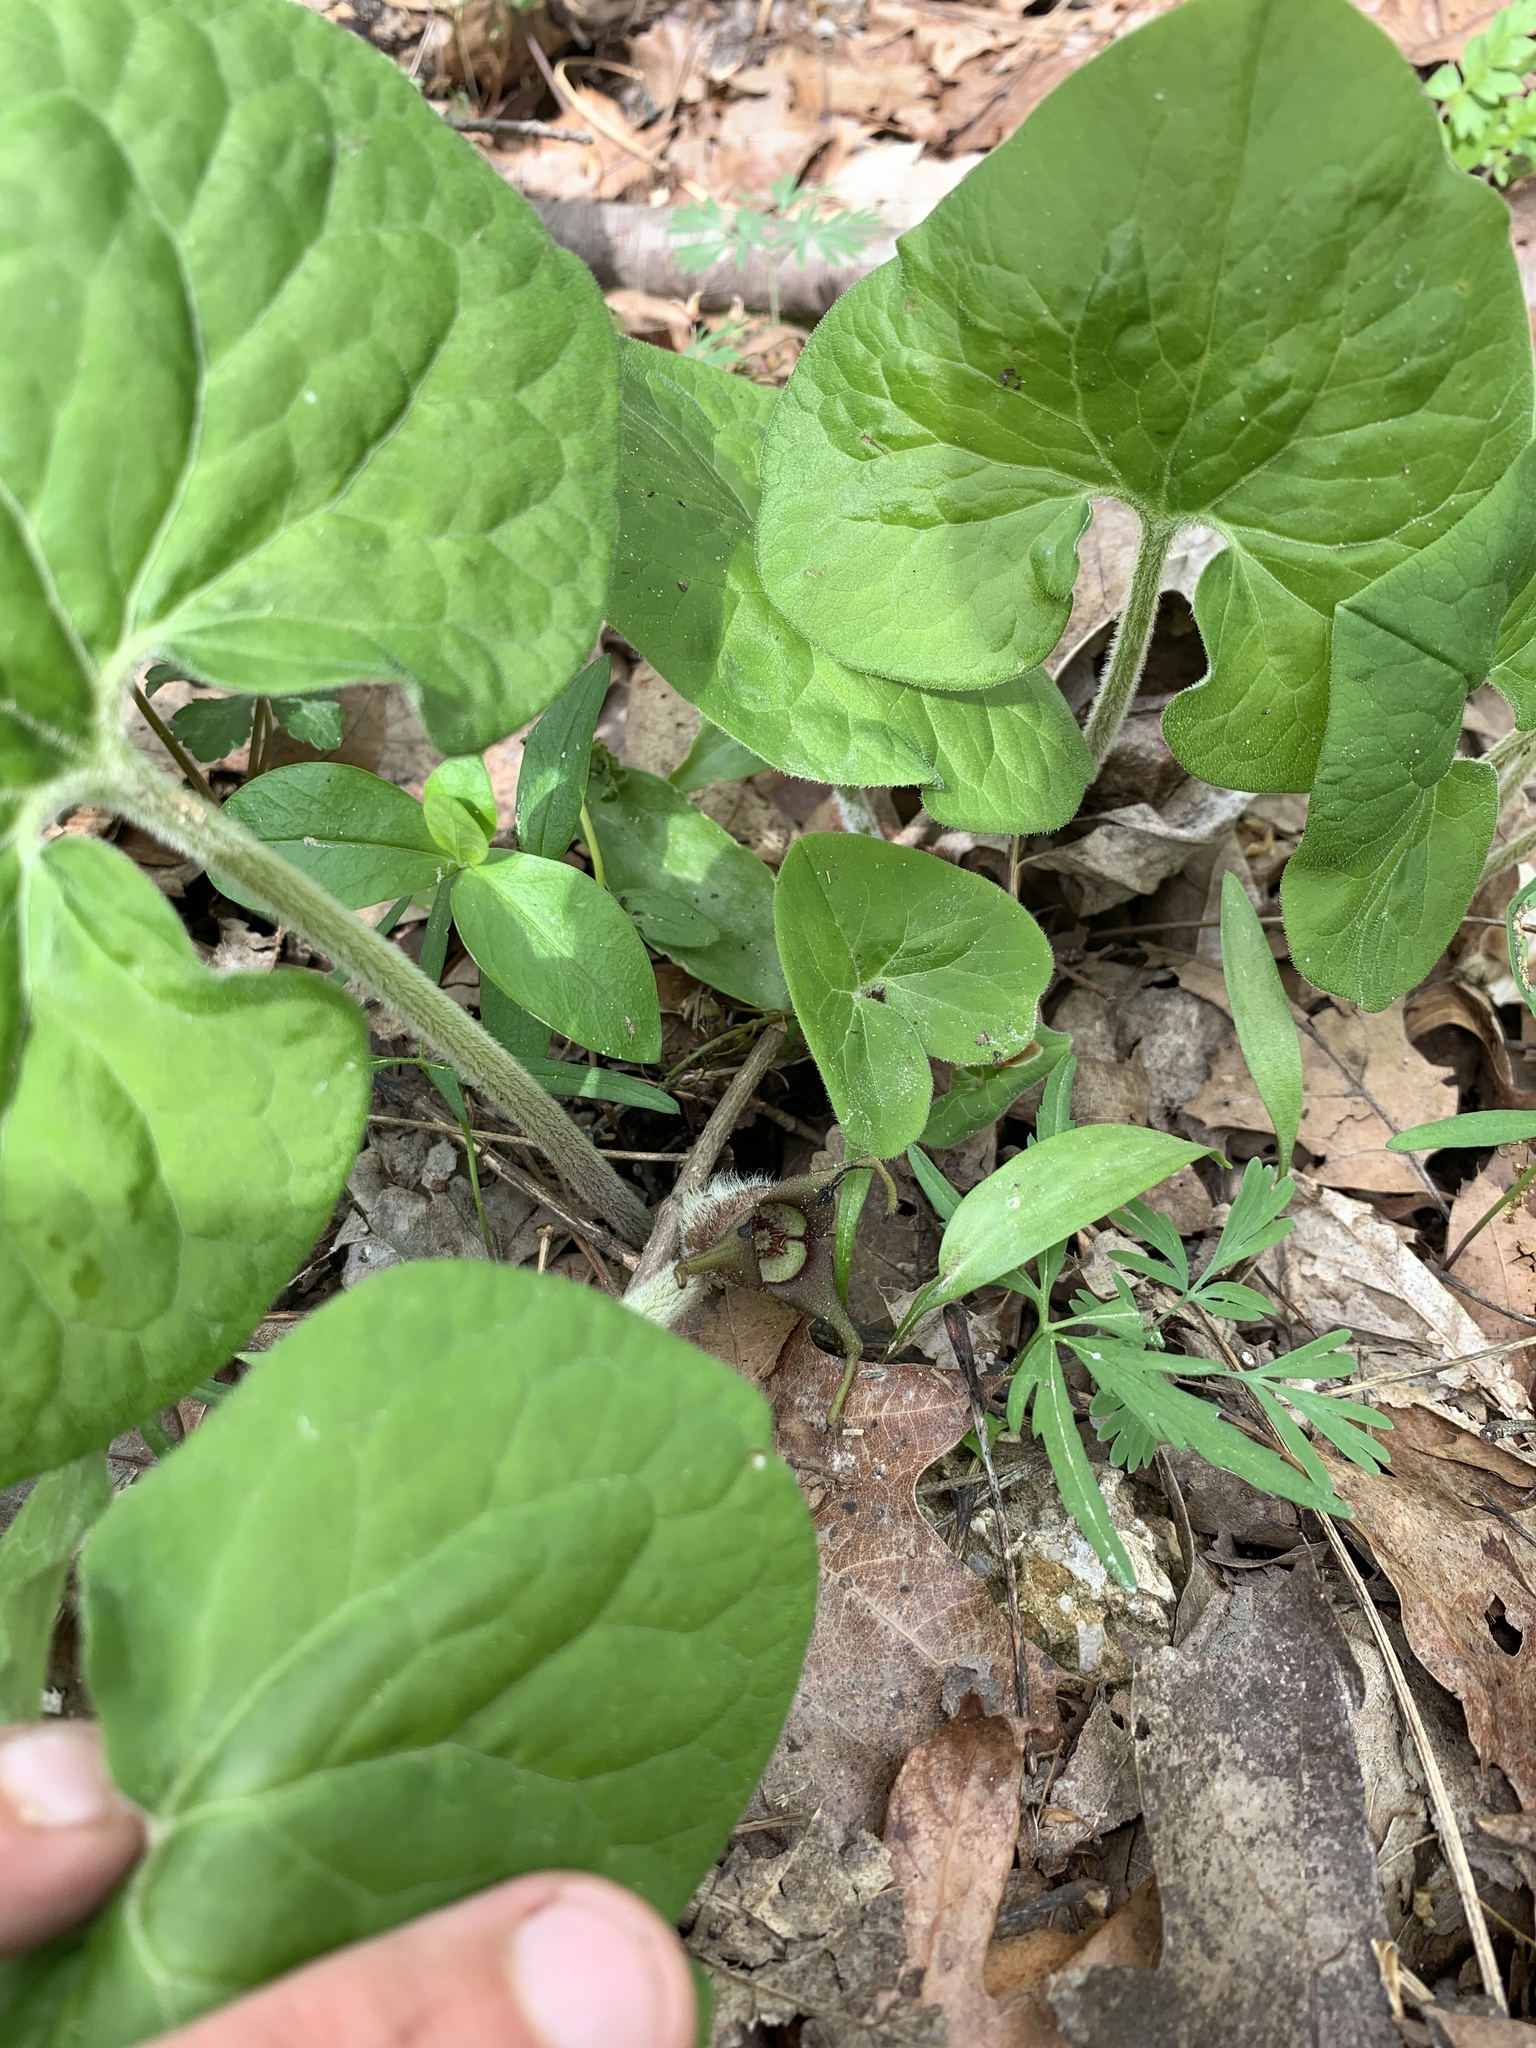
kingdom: Plantae
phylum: Tracheophyta
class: Magnoliopsida
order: Piperales
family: Aristolochiaceae
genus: Asarum
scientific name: Asarum canadense
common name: Wild ginger
